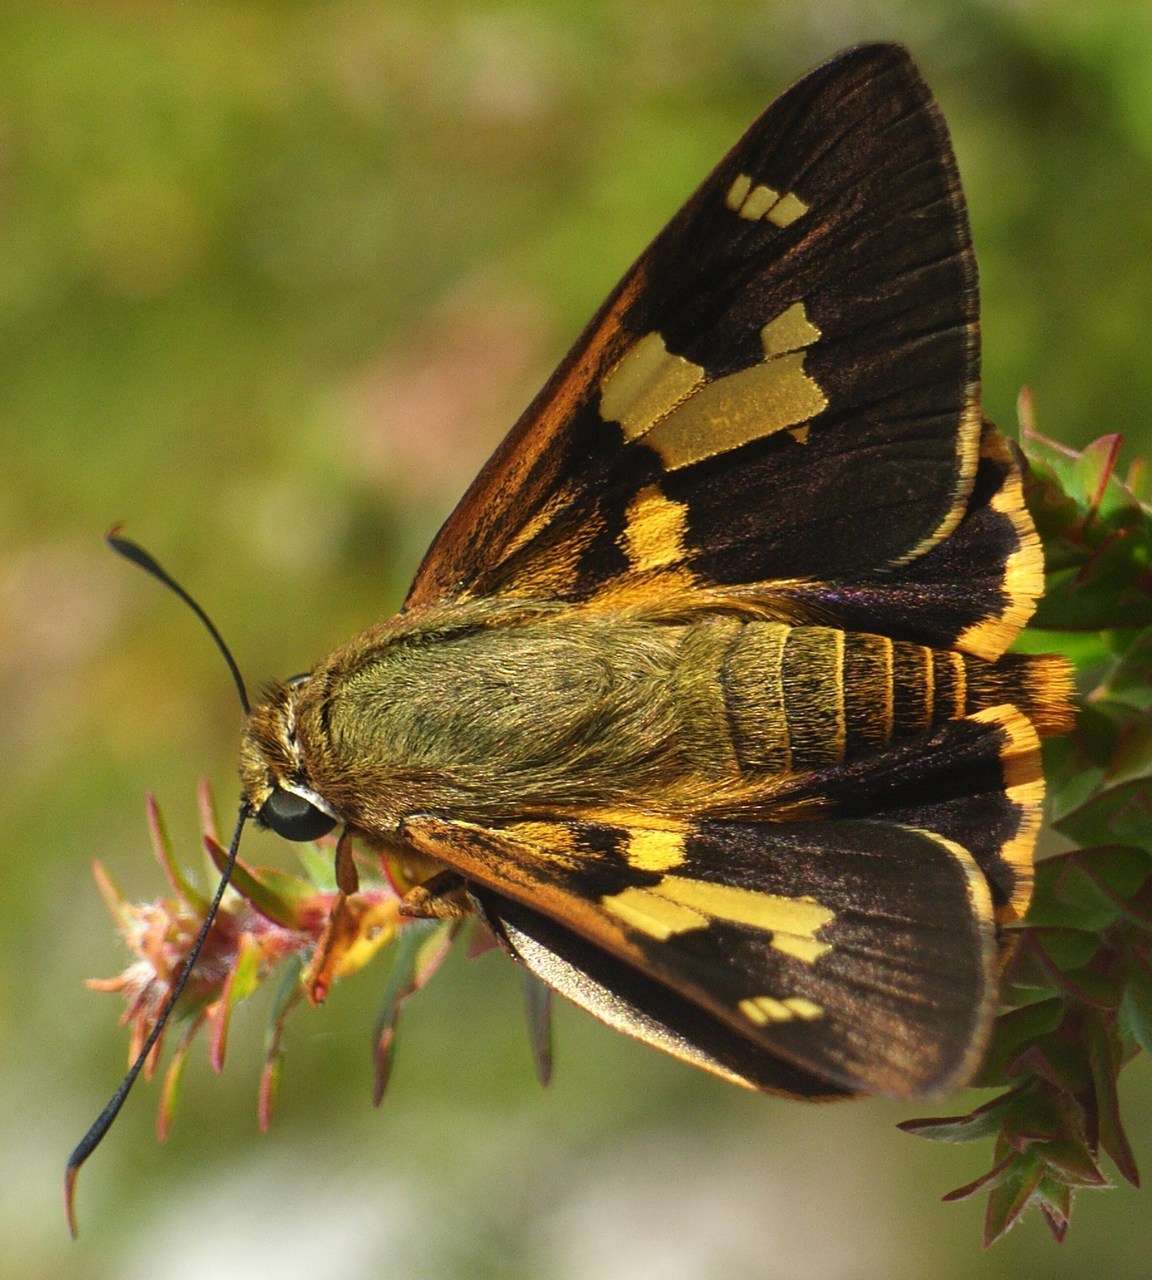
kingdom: Animalia
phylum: Arthropoda
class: Insecta
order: Lepidoptera
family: Hesperiidae
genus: Trapezites
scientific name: Trapezites symmomus
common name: Splendid ochre
